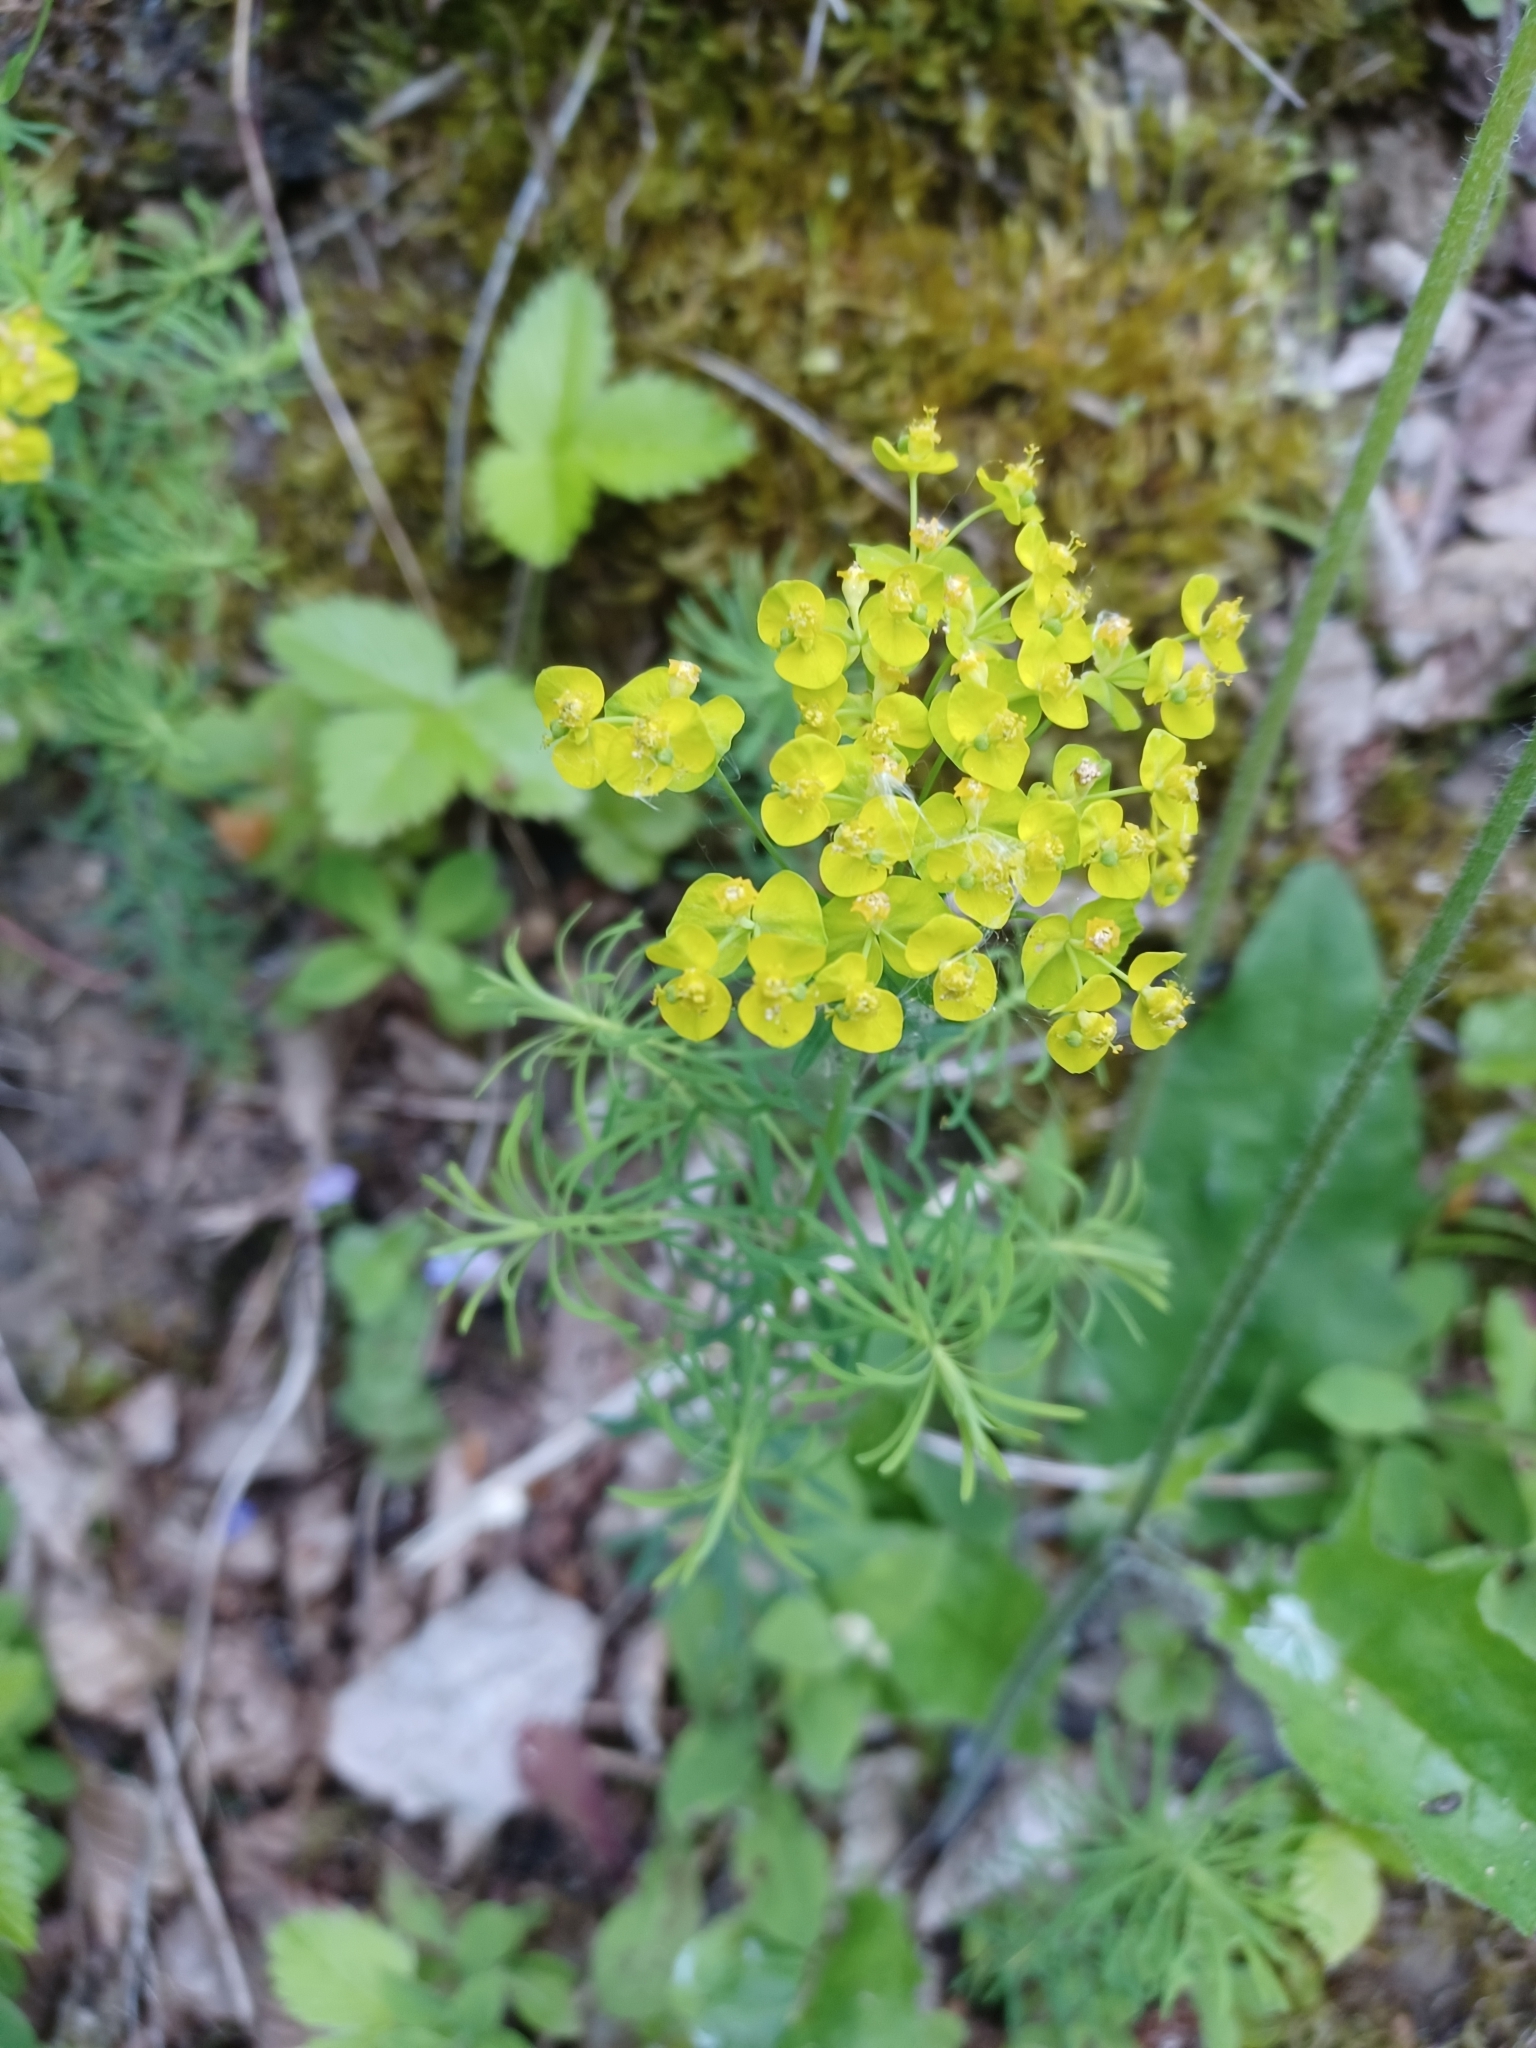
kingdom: Plantae
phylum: Tracheophyta
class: Magnoliopsida
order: Malpighiales
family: Euphorbiaceae
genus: Euphorbia
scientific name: Euphorbia cyparissias
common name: Cypress spurge
